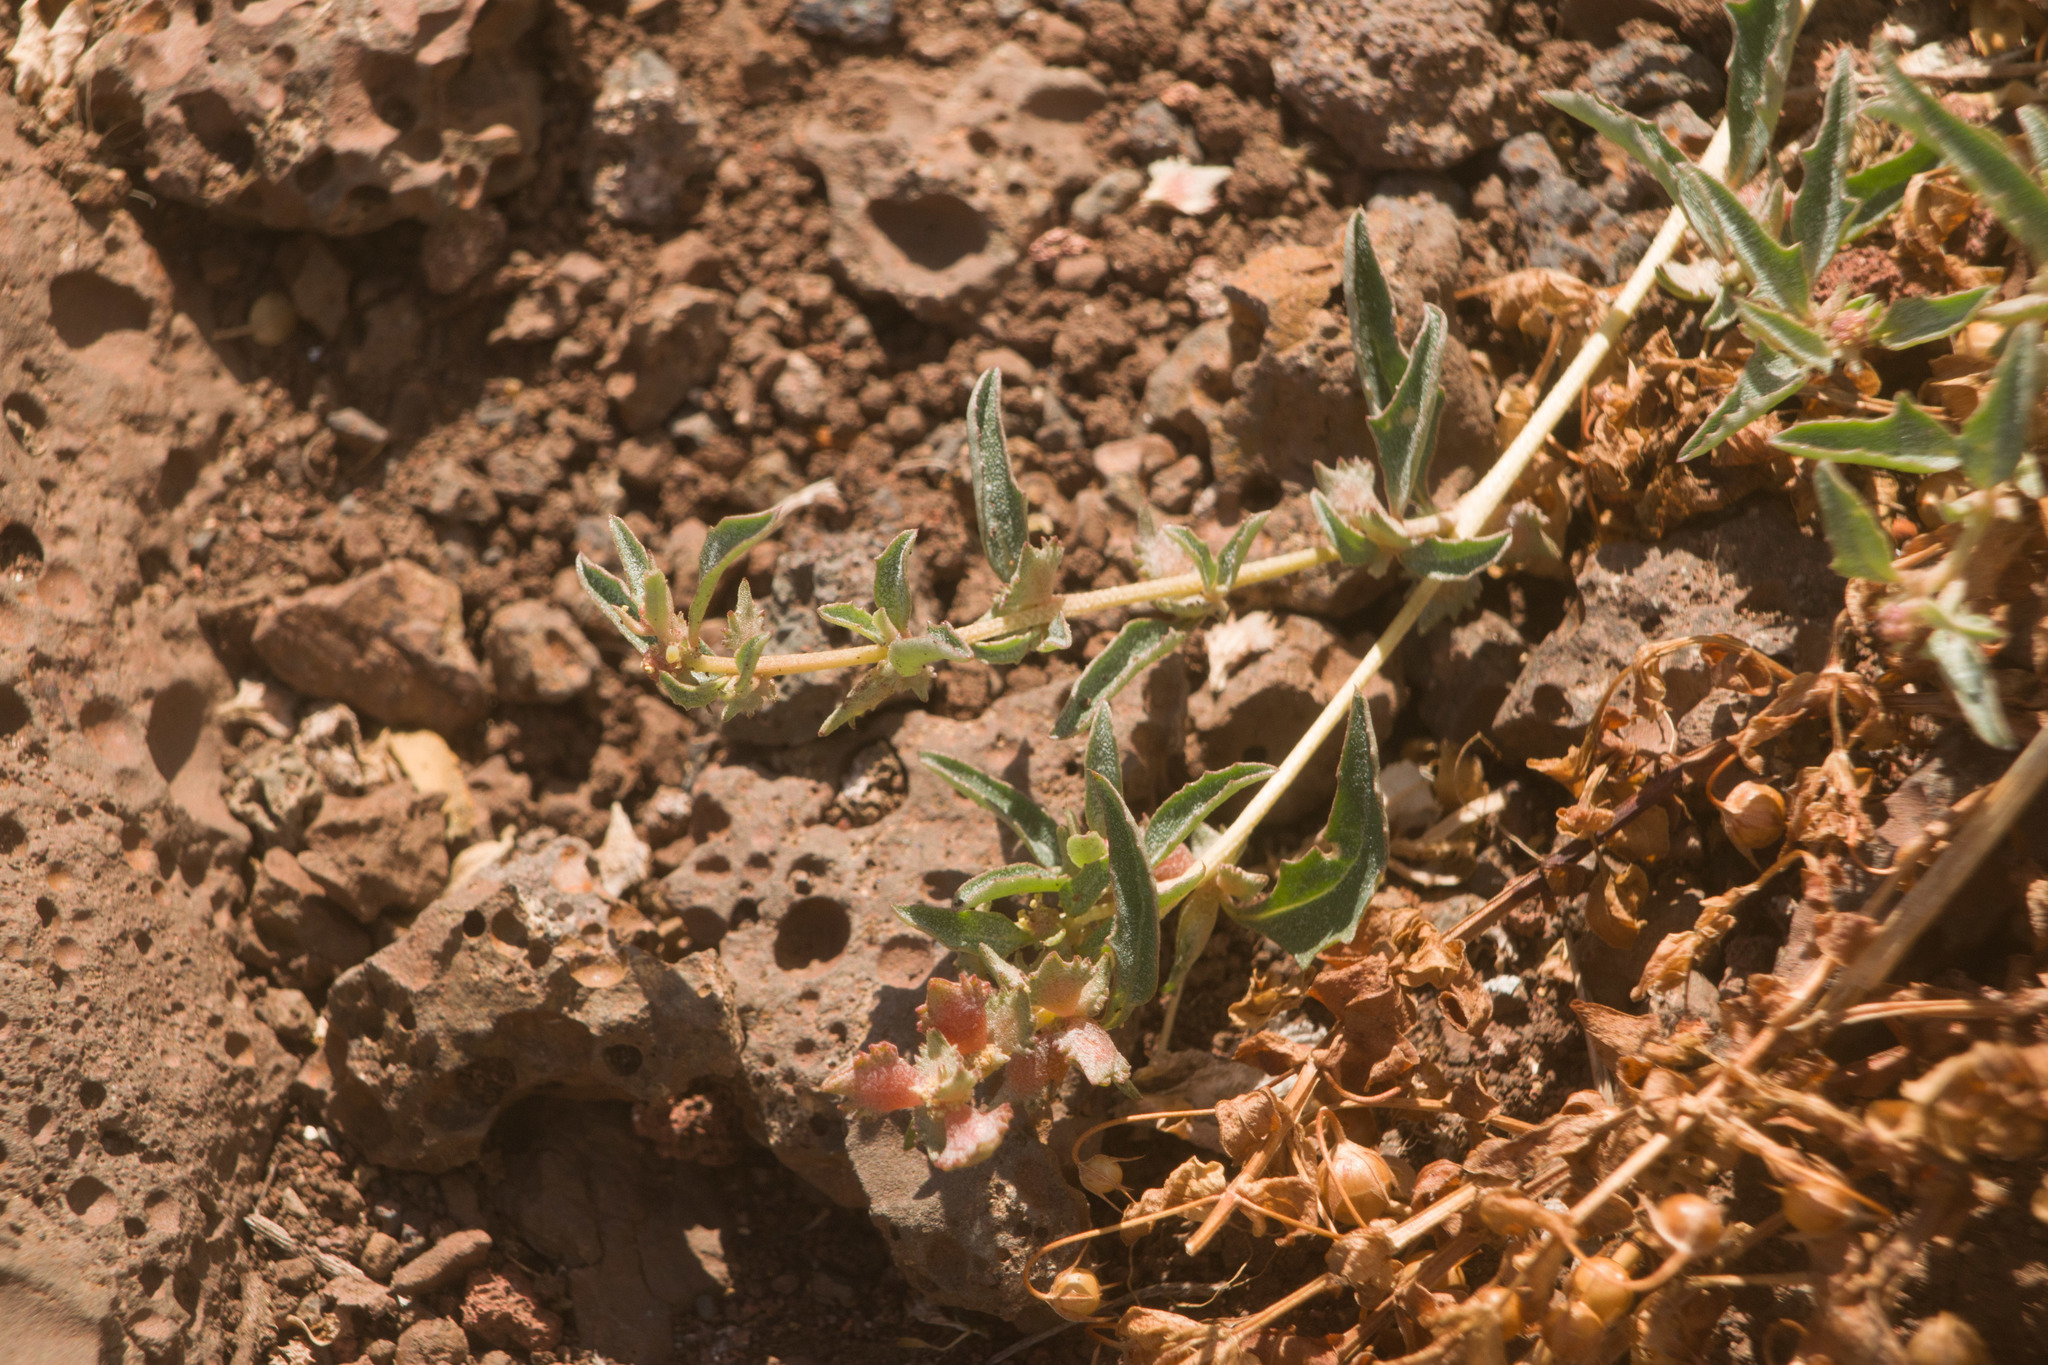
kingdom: Plantae
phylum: Tracheophyta
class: Magnoliopsida
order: Caryophyllales
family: Amaranthaceae
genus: Atriplex
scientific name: Atriplex semibaccata
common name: Australian saltbush
